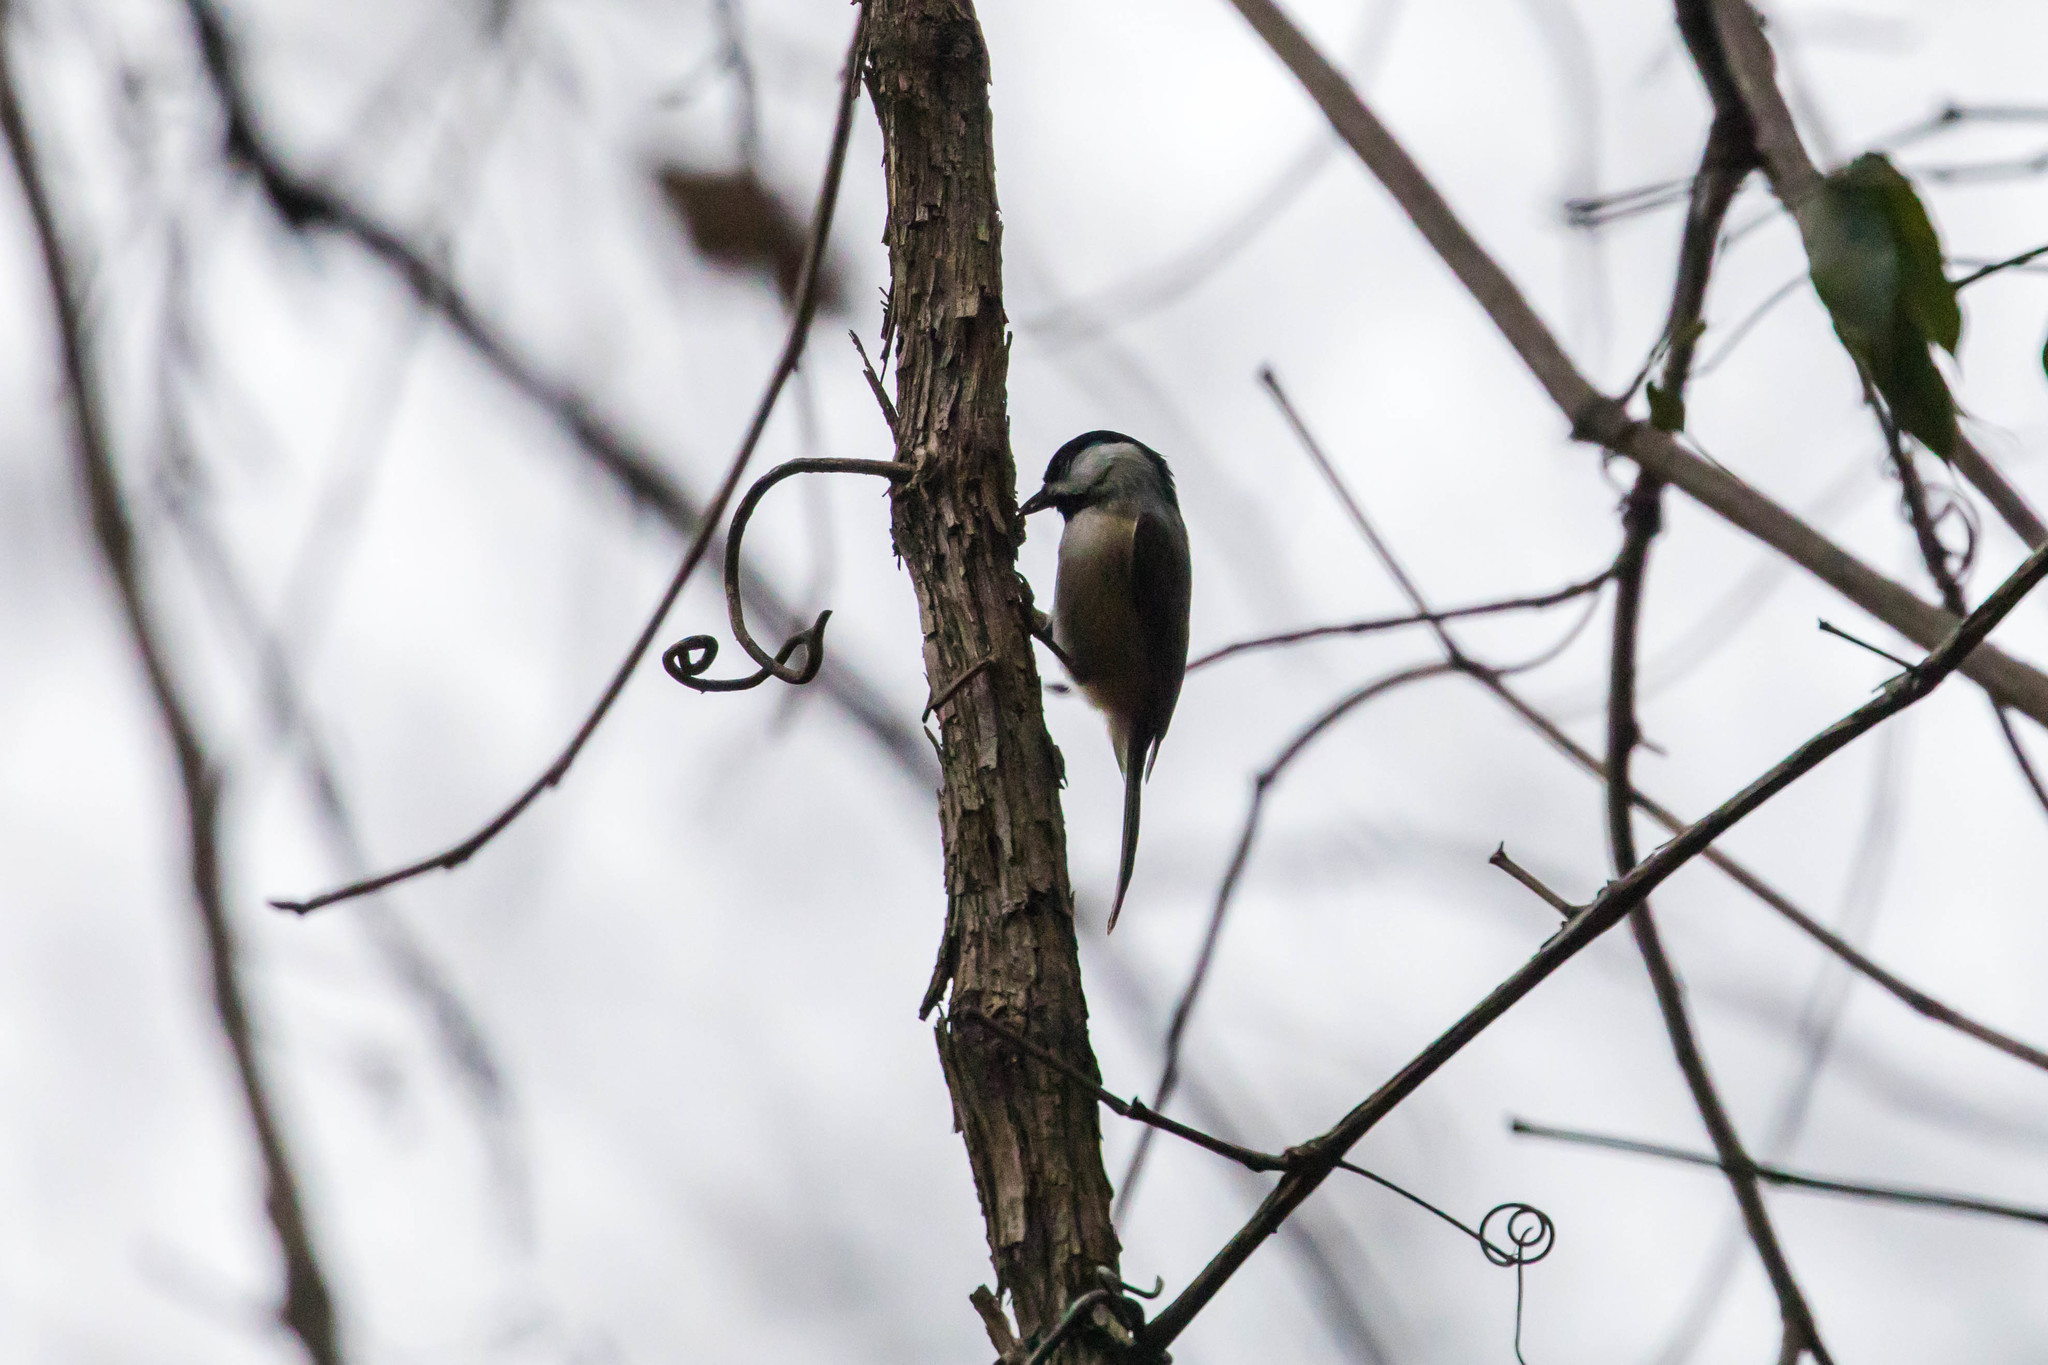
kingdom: Animalia
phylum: Chordata
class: Aves
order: Passeriformes
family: Paridae
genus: Poecile
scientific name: Poecile carolinensis
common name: Carolina chickadee
